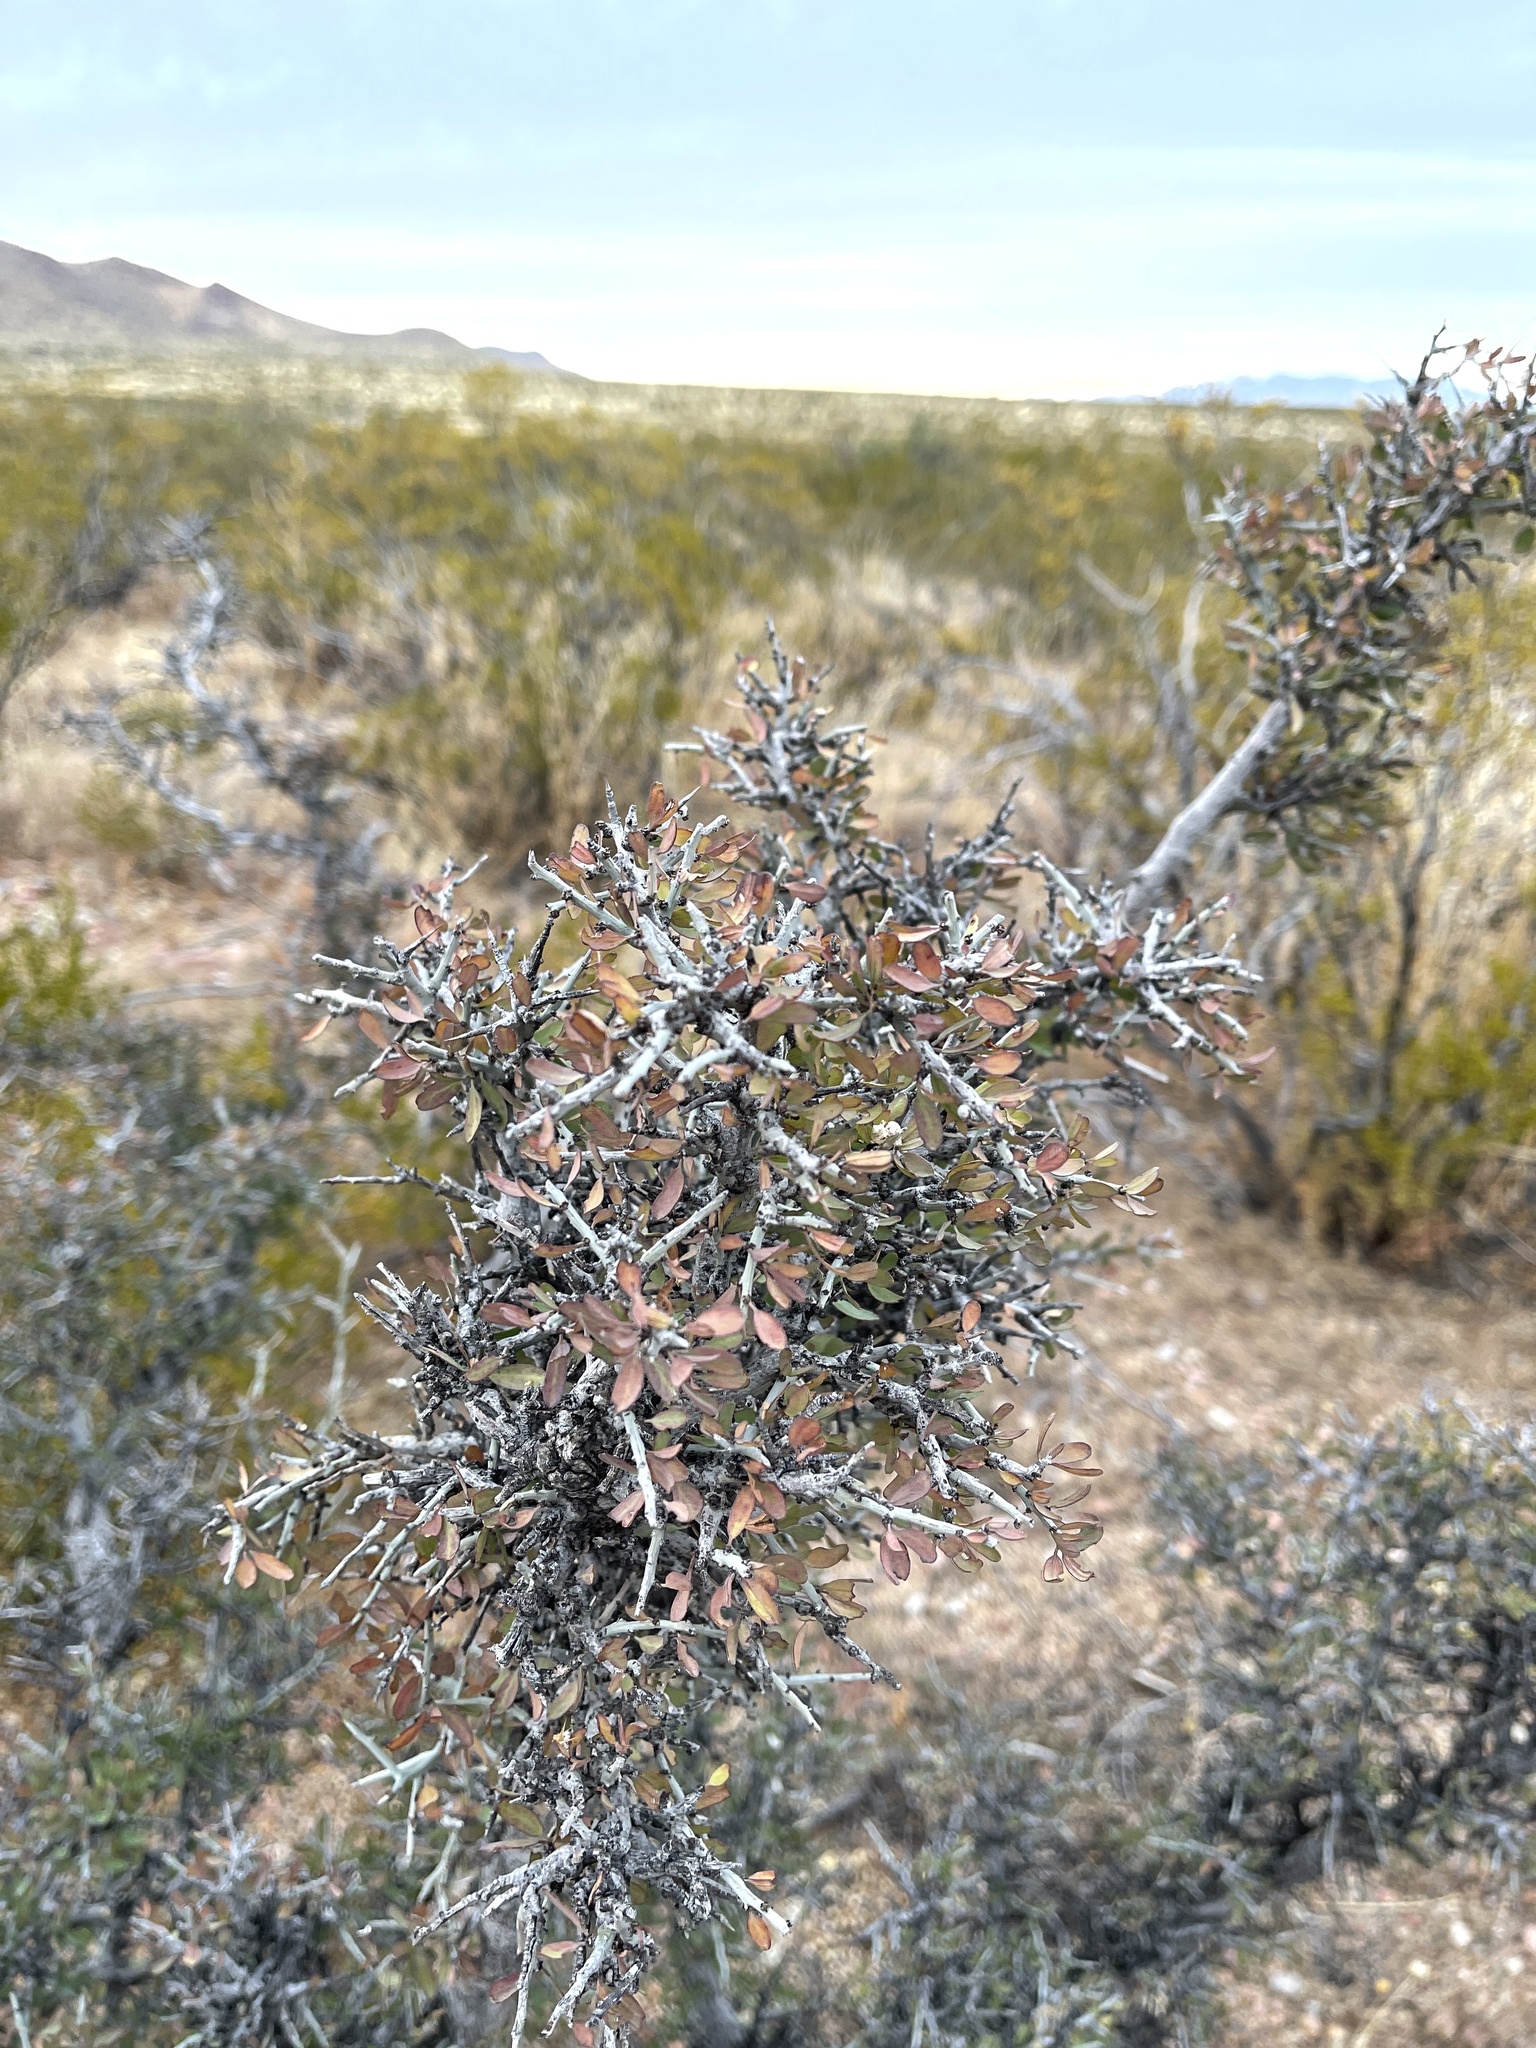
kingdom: Plantae
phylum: Tracheophyta
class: Magnoliopsida
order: Rosales
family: Rhamnaceae
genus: Sarcomphalus
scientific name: Sarcomphalus obtusifolius
